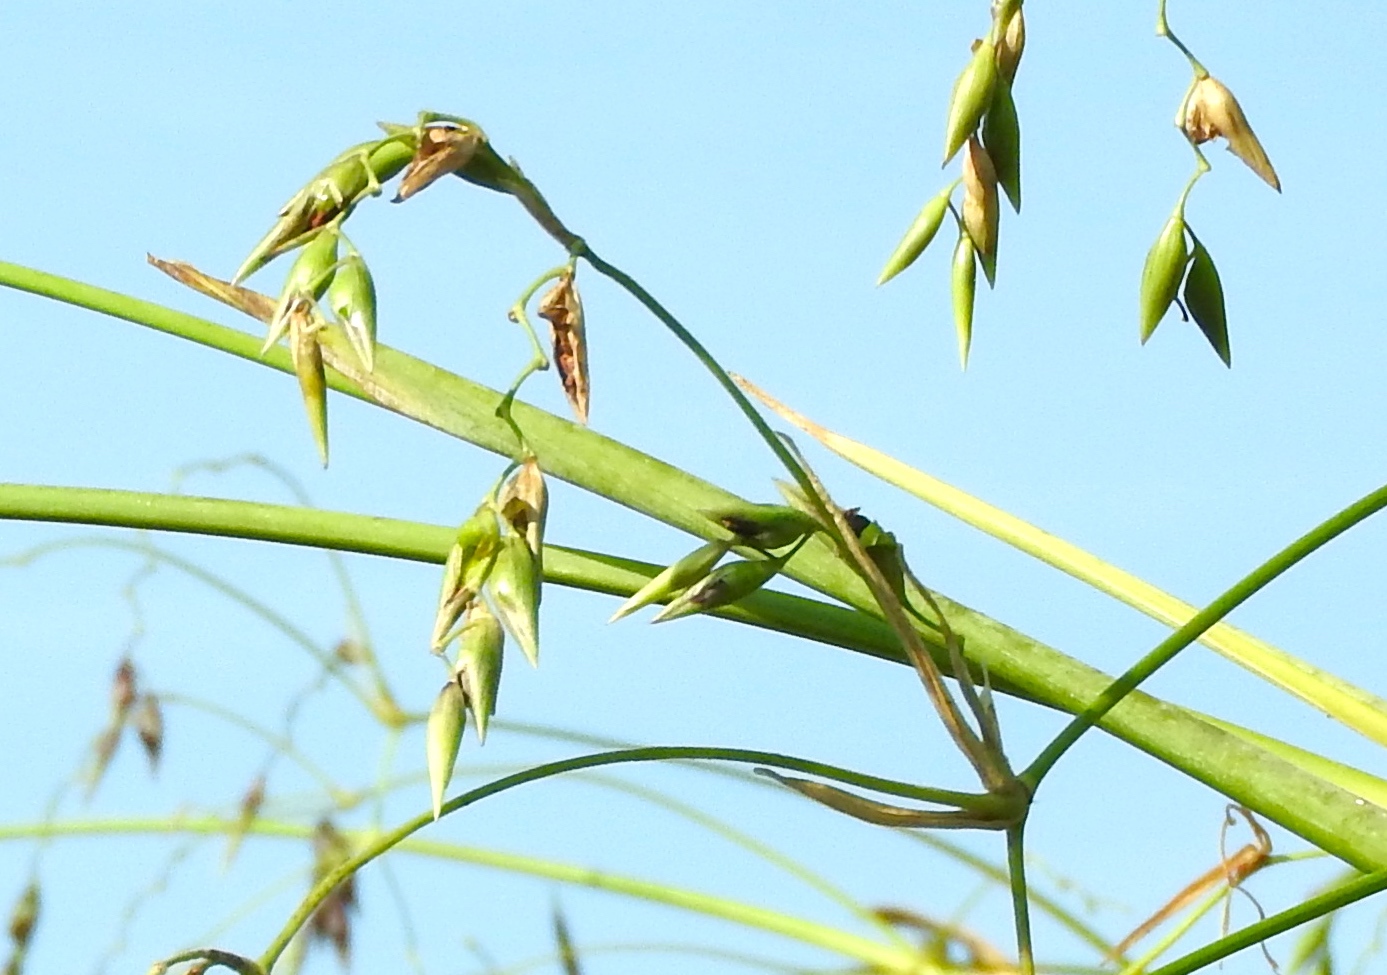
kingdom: Plantae
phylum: Tracheophyta
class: Liliopsida
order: Zingiberales
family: Marantaceae
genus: Thalia
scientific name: Thalia geniculata
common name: Arrowroot
